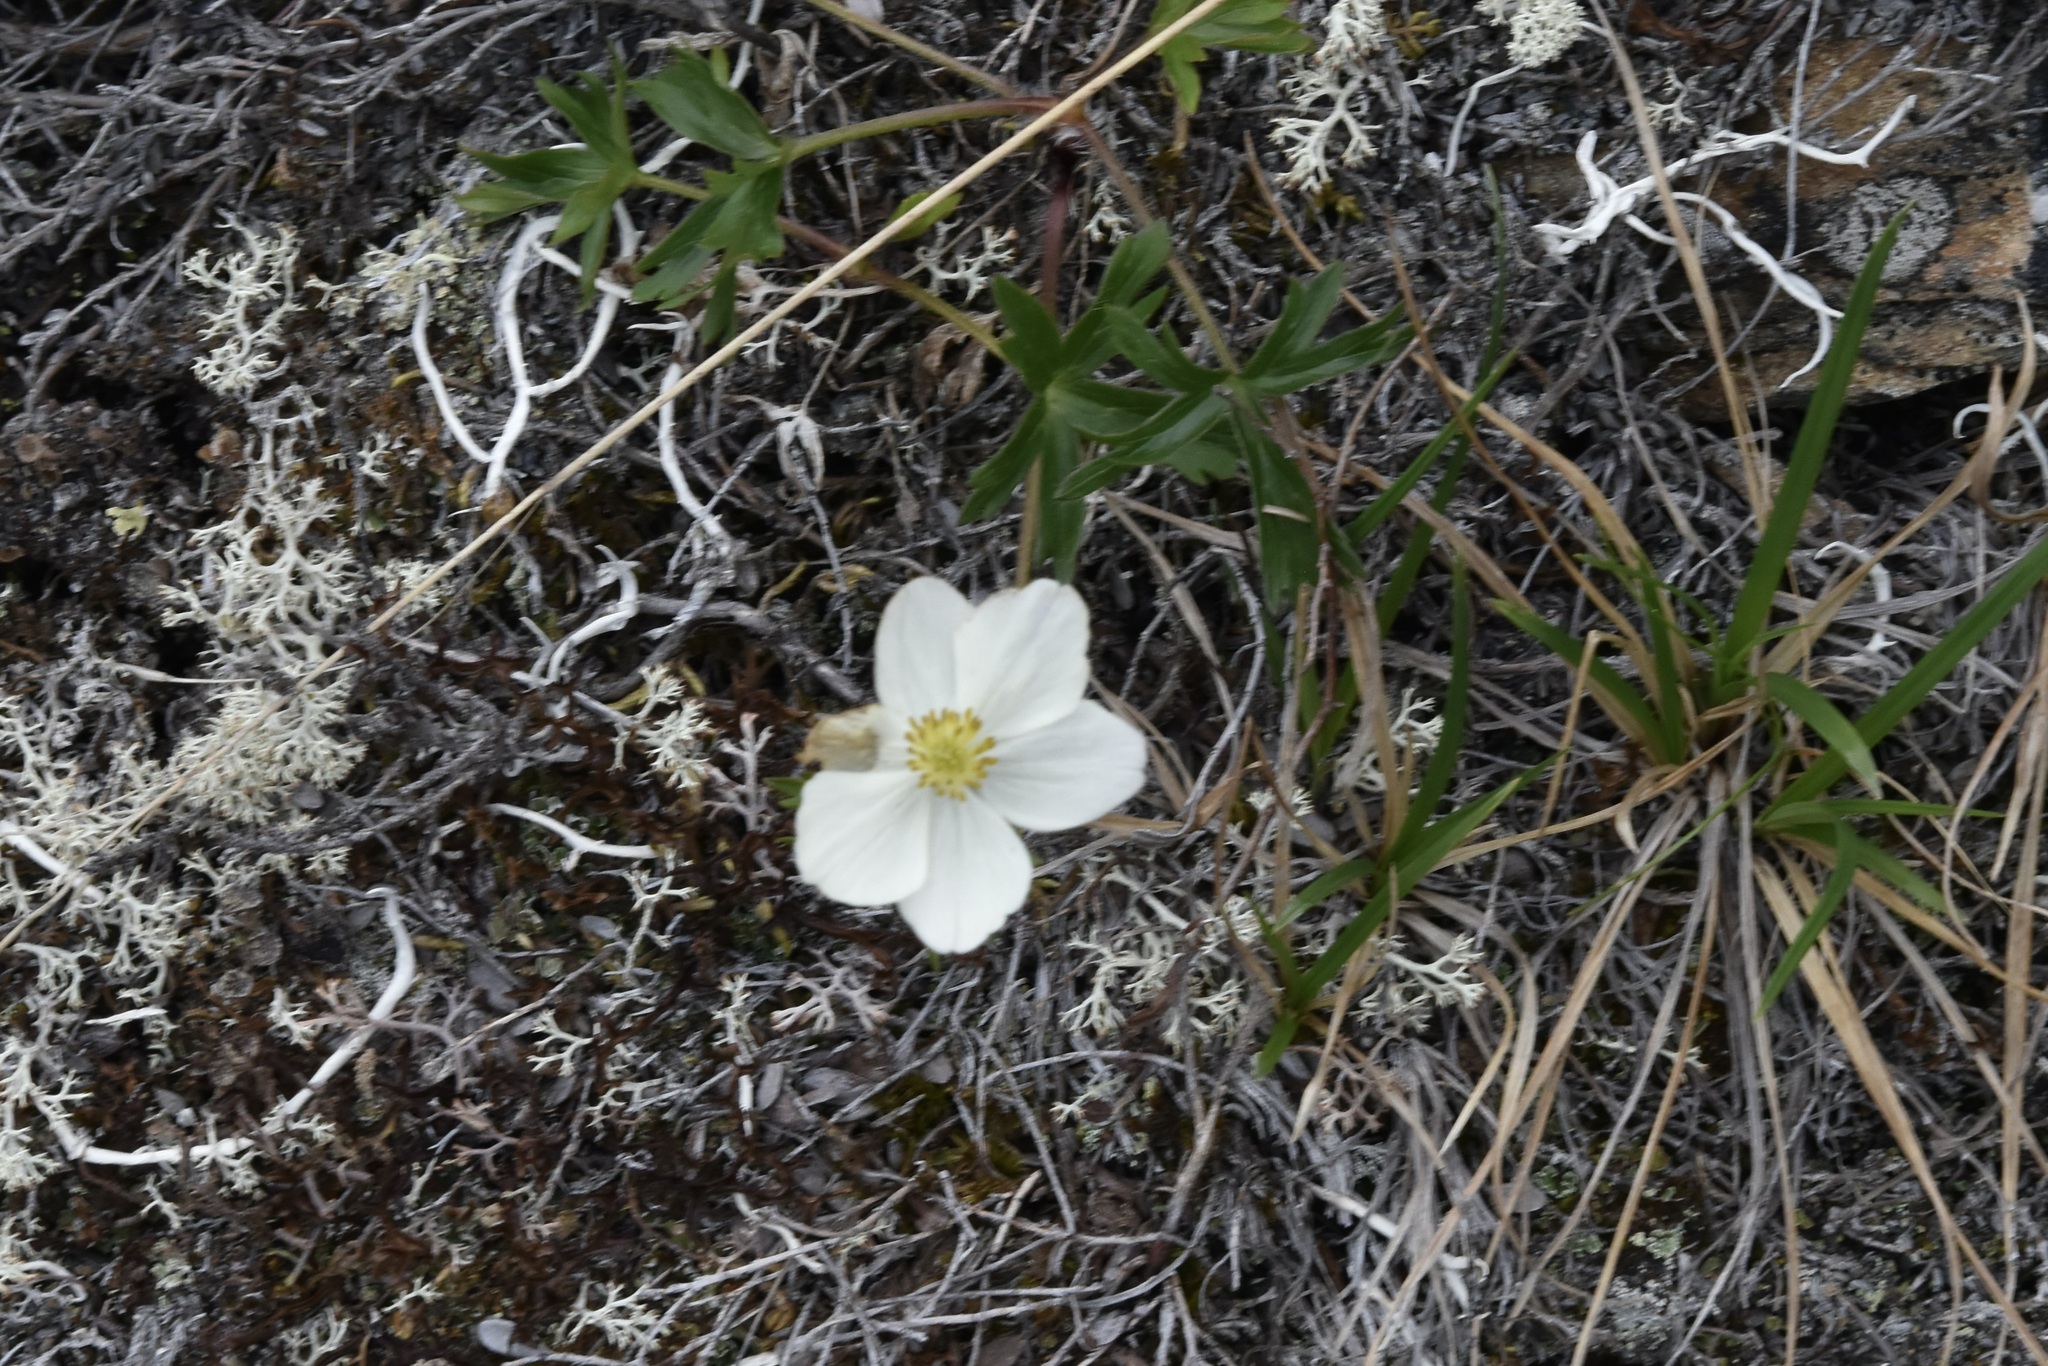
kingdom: Plantae
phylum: Tracheophyta
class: Magnoliopsida
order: Ranunculales
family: Ranunculaceae
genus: Anemonastrum
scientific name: Anemonastrum narcissiflorum
